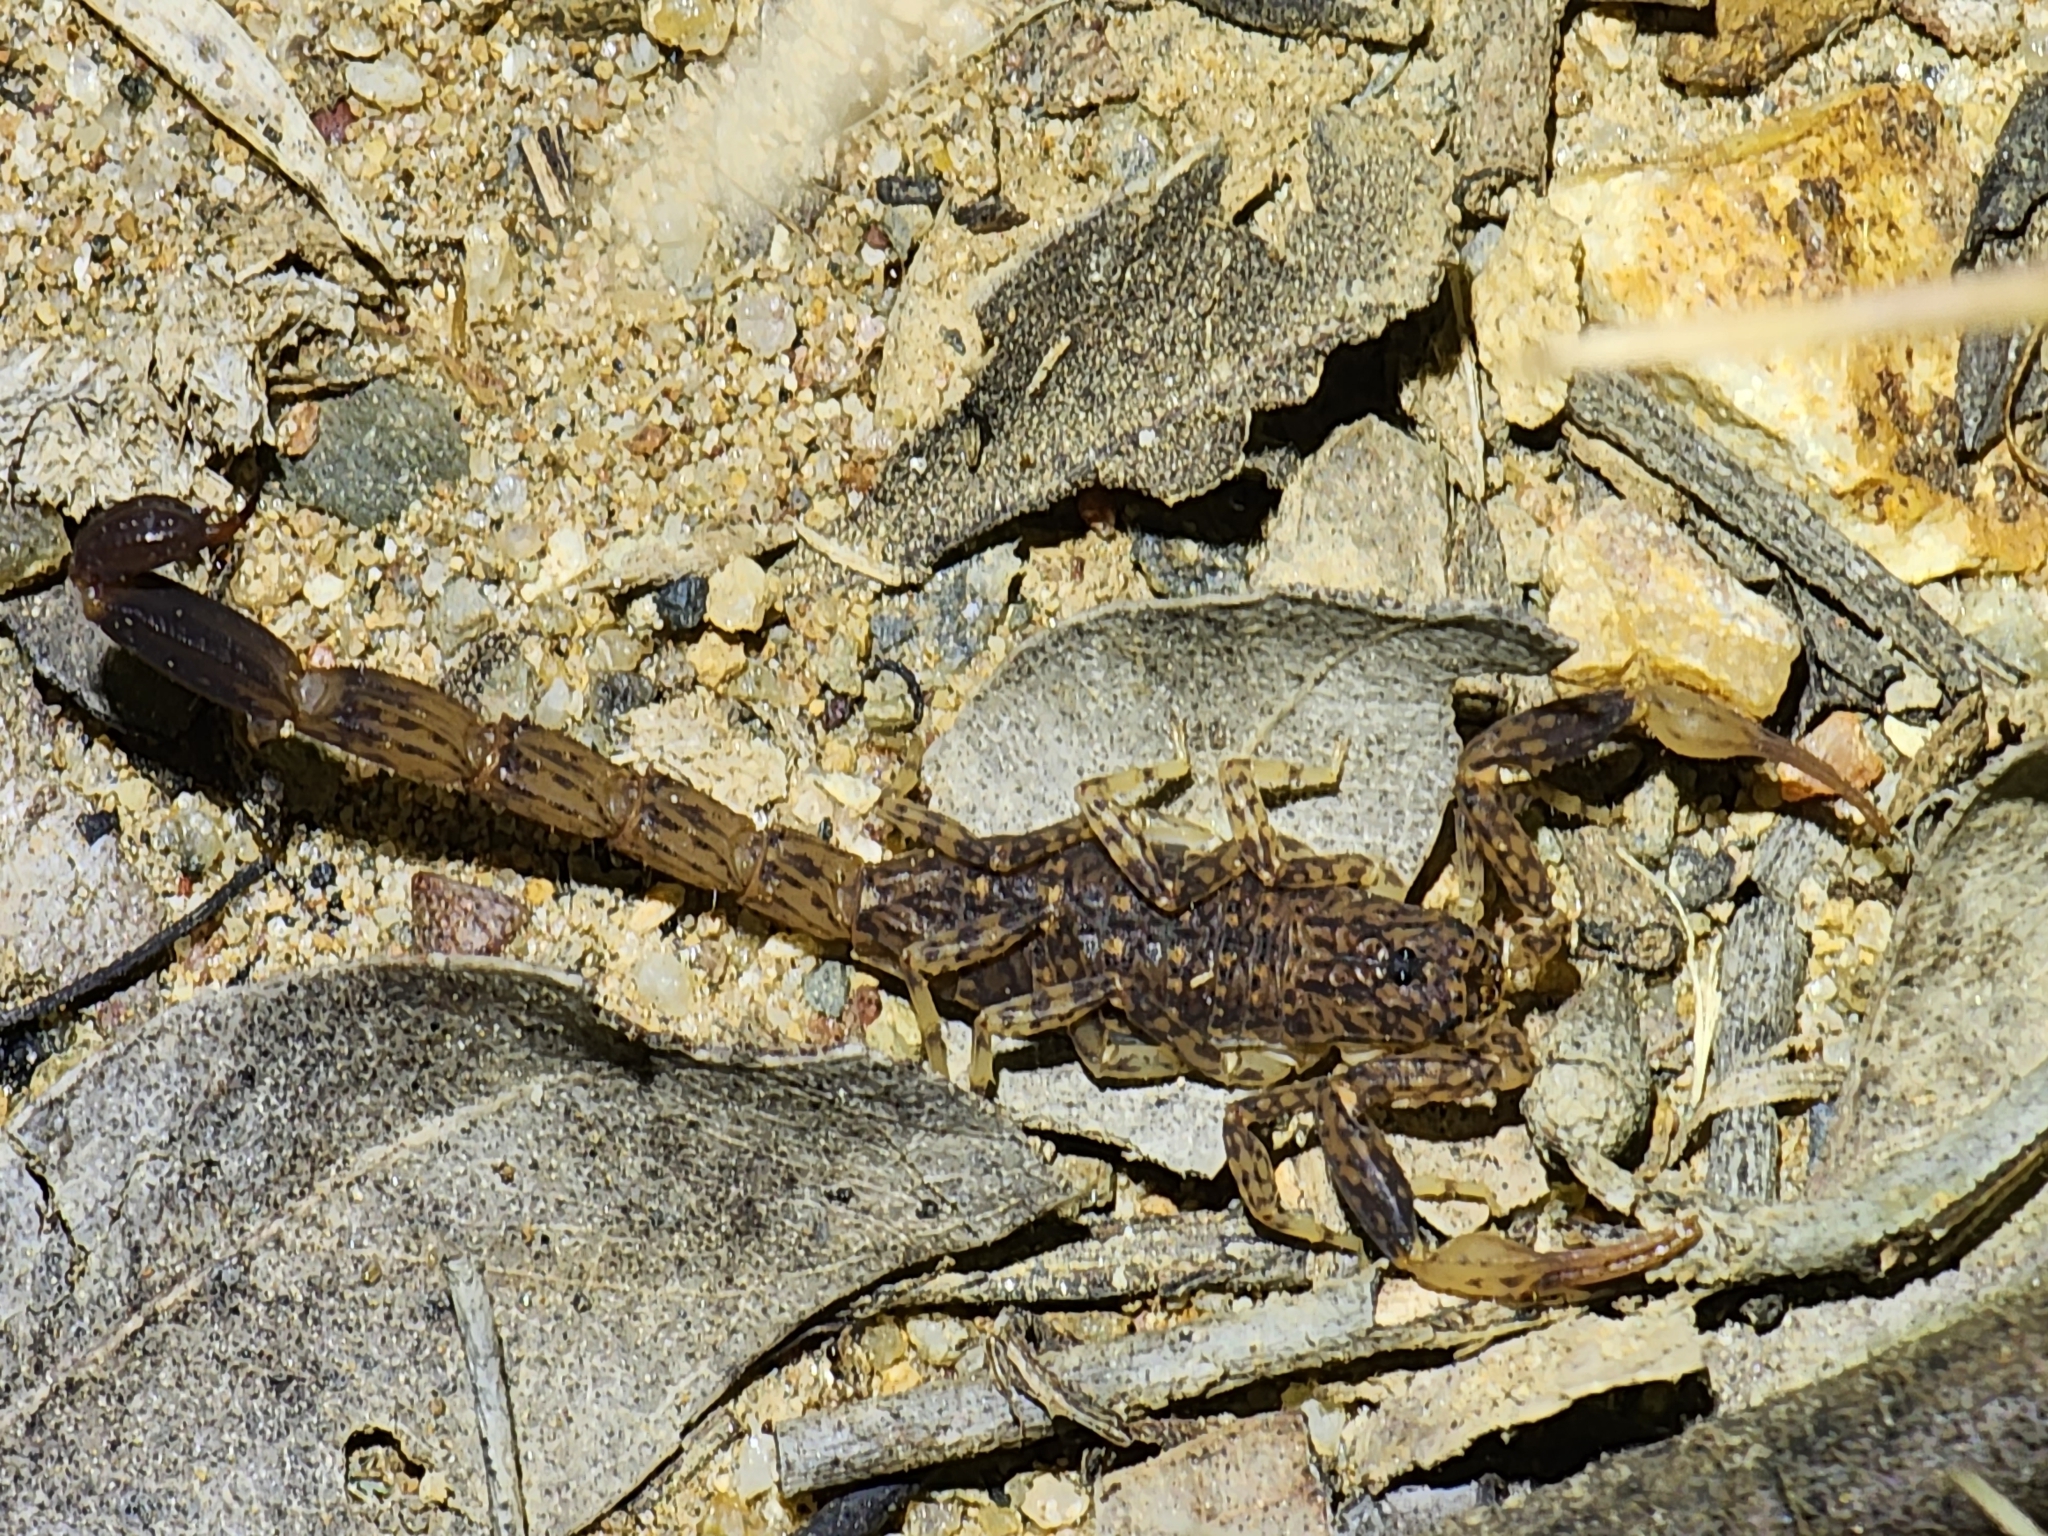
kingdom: Animalia
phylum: Arthropoda
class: Arachnida
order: Scorpiones
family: Buthidae
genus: Lychas
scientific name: Lychas variatus
